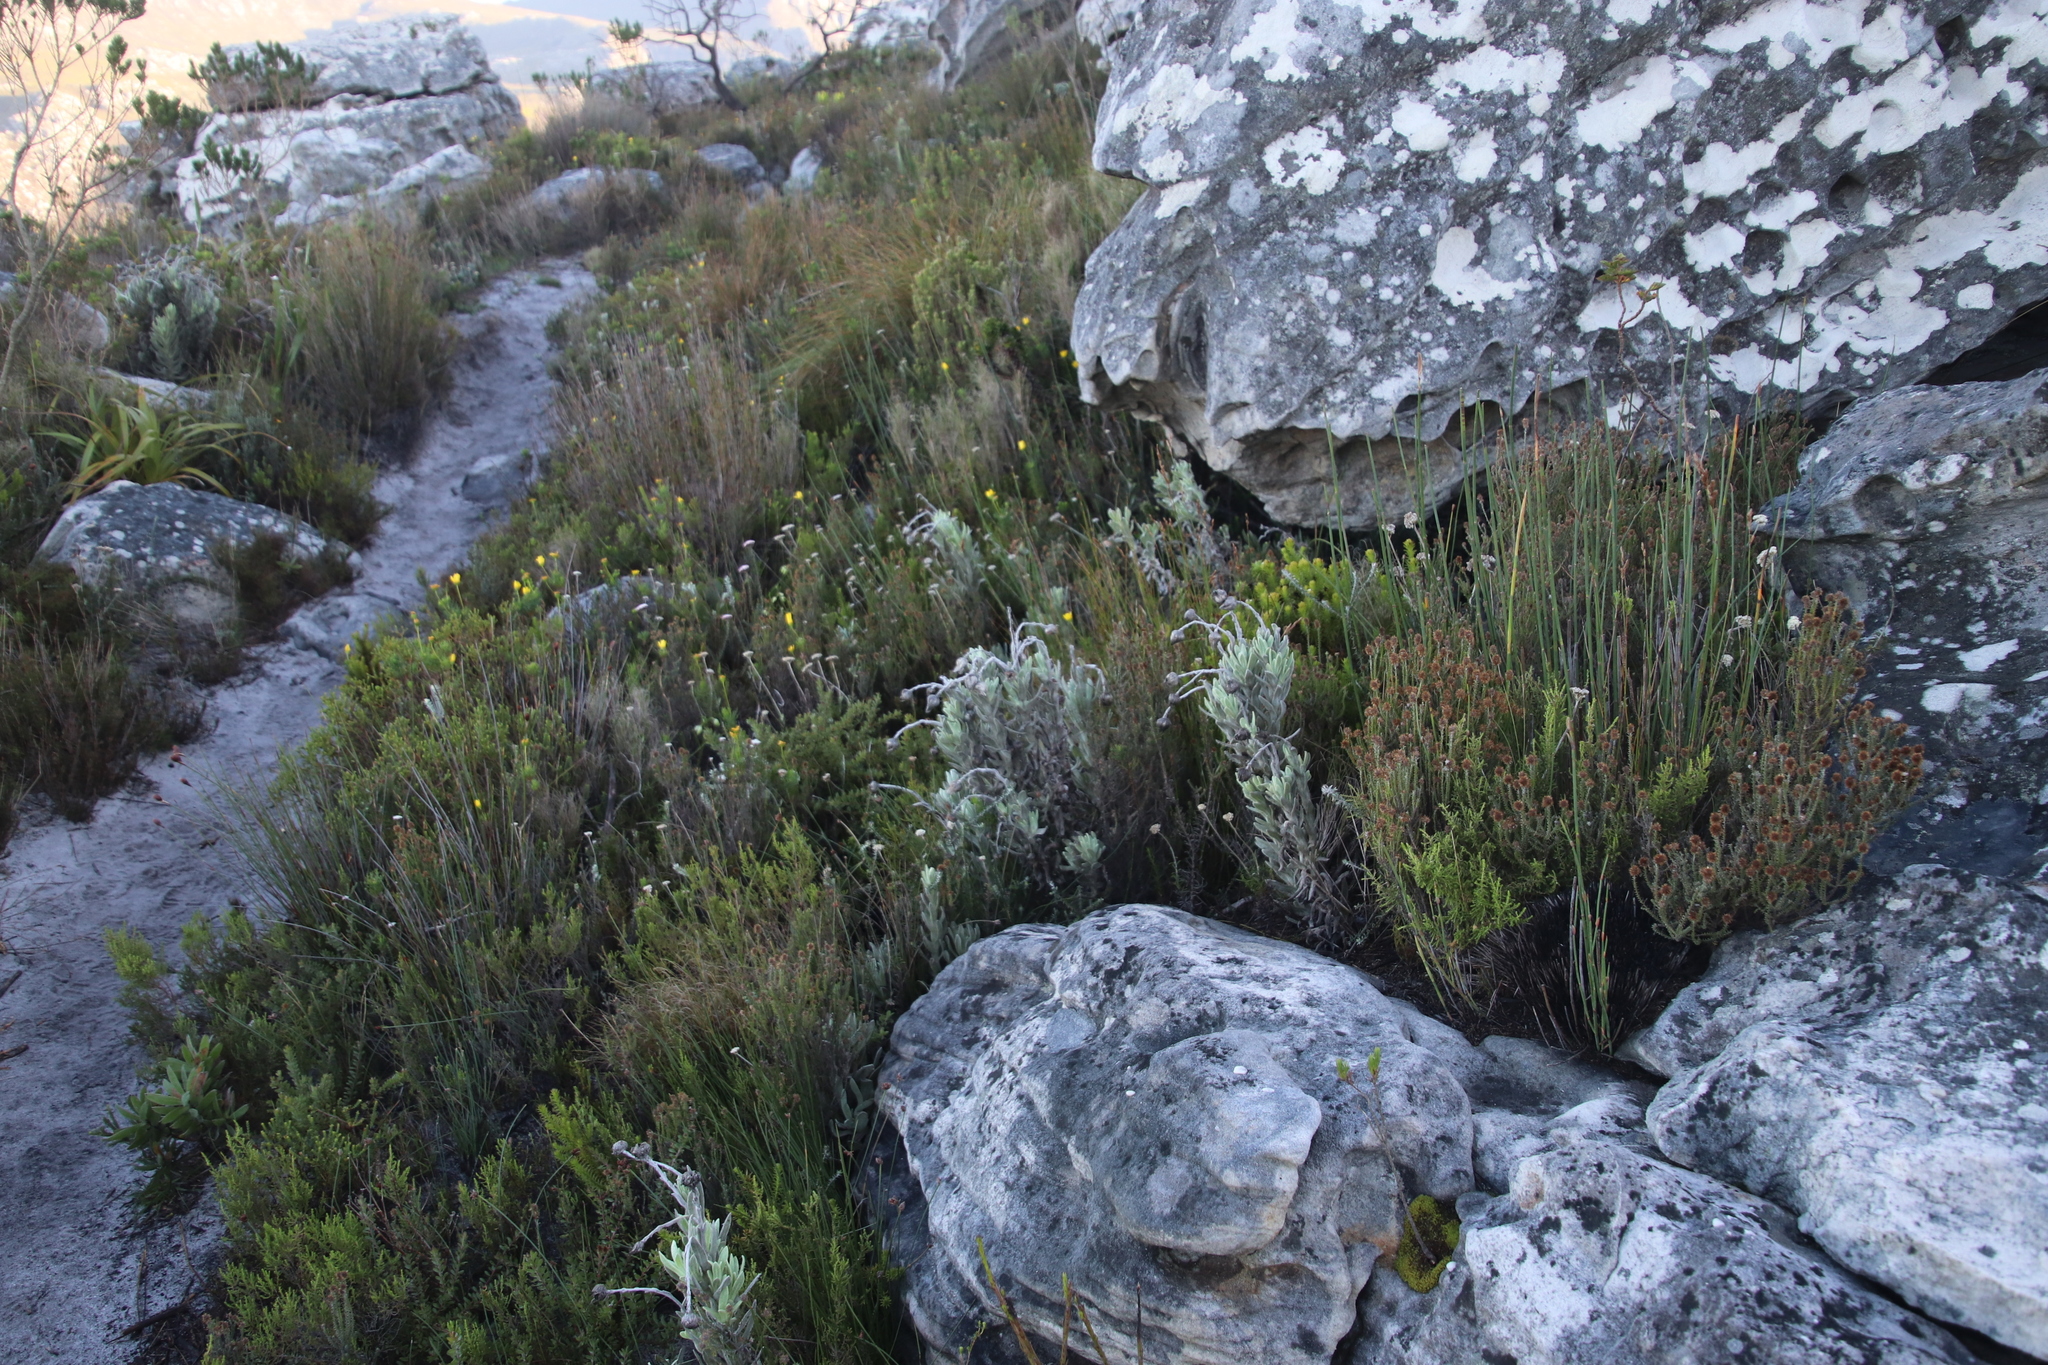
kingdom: Plantae
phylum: Tracheophyta
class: Magnoliopsida
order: Asterales
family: Asteraceae
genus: Syncarpha
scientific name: Syncarpha vestita
